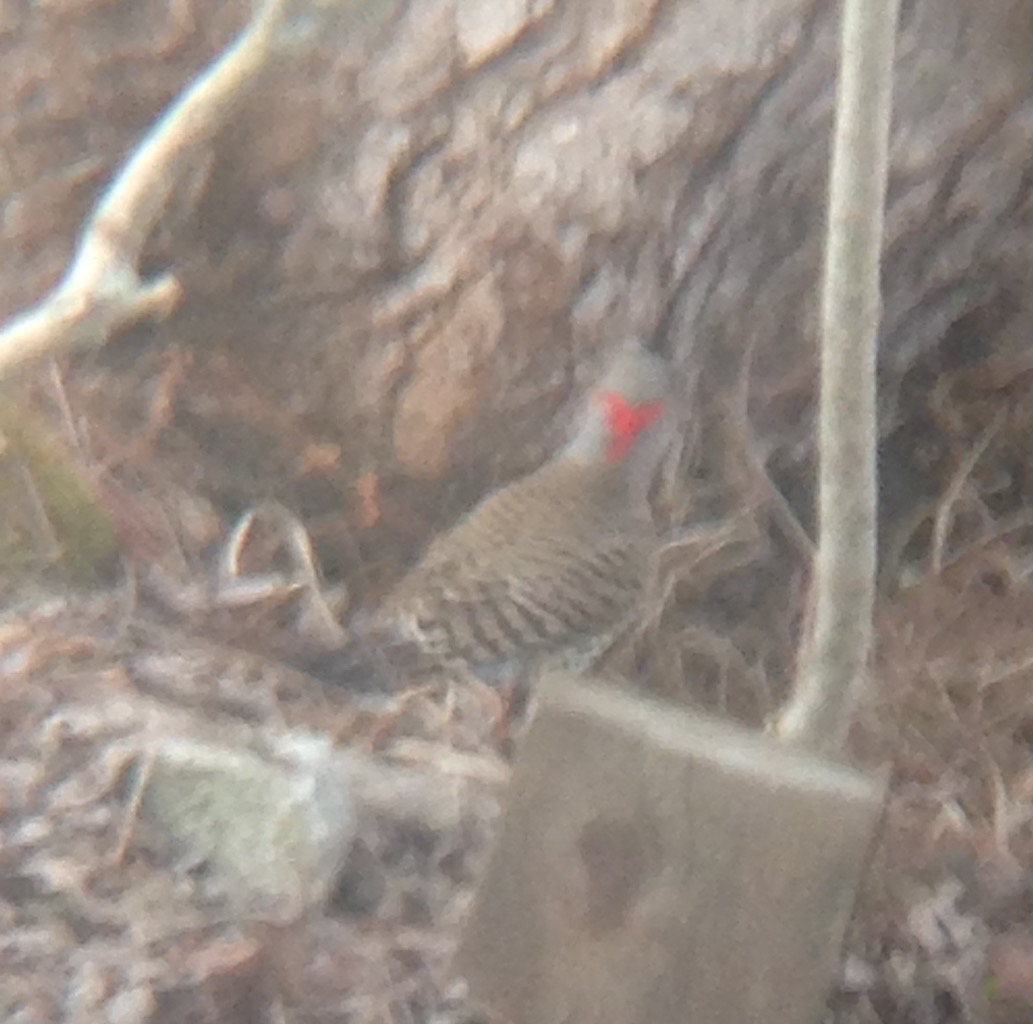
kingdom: Animalia
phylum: Chordata
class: Aves
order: Piciformes
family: Picidae
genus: Colaptes
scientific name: Colaptes auratus
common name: Northern flicker
